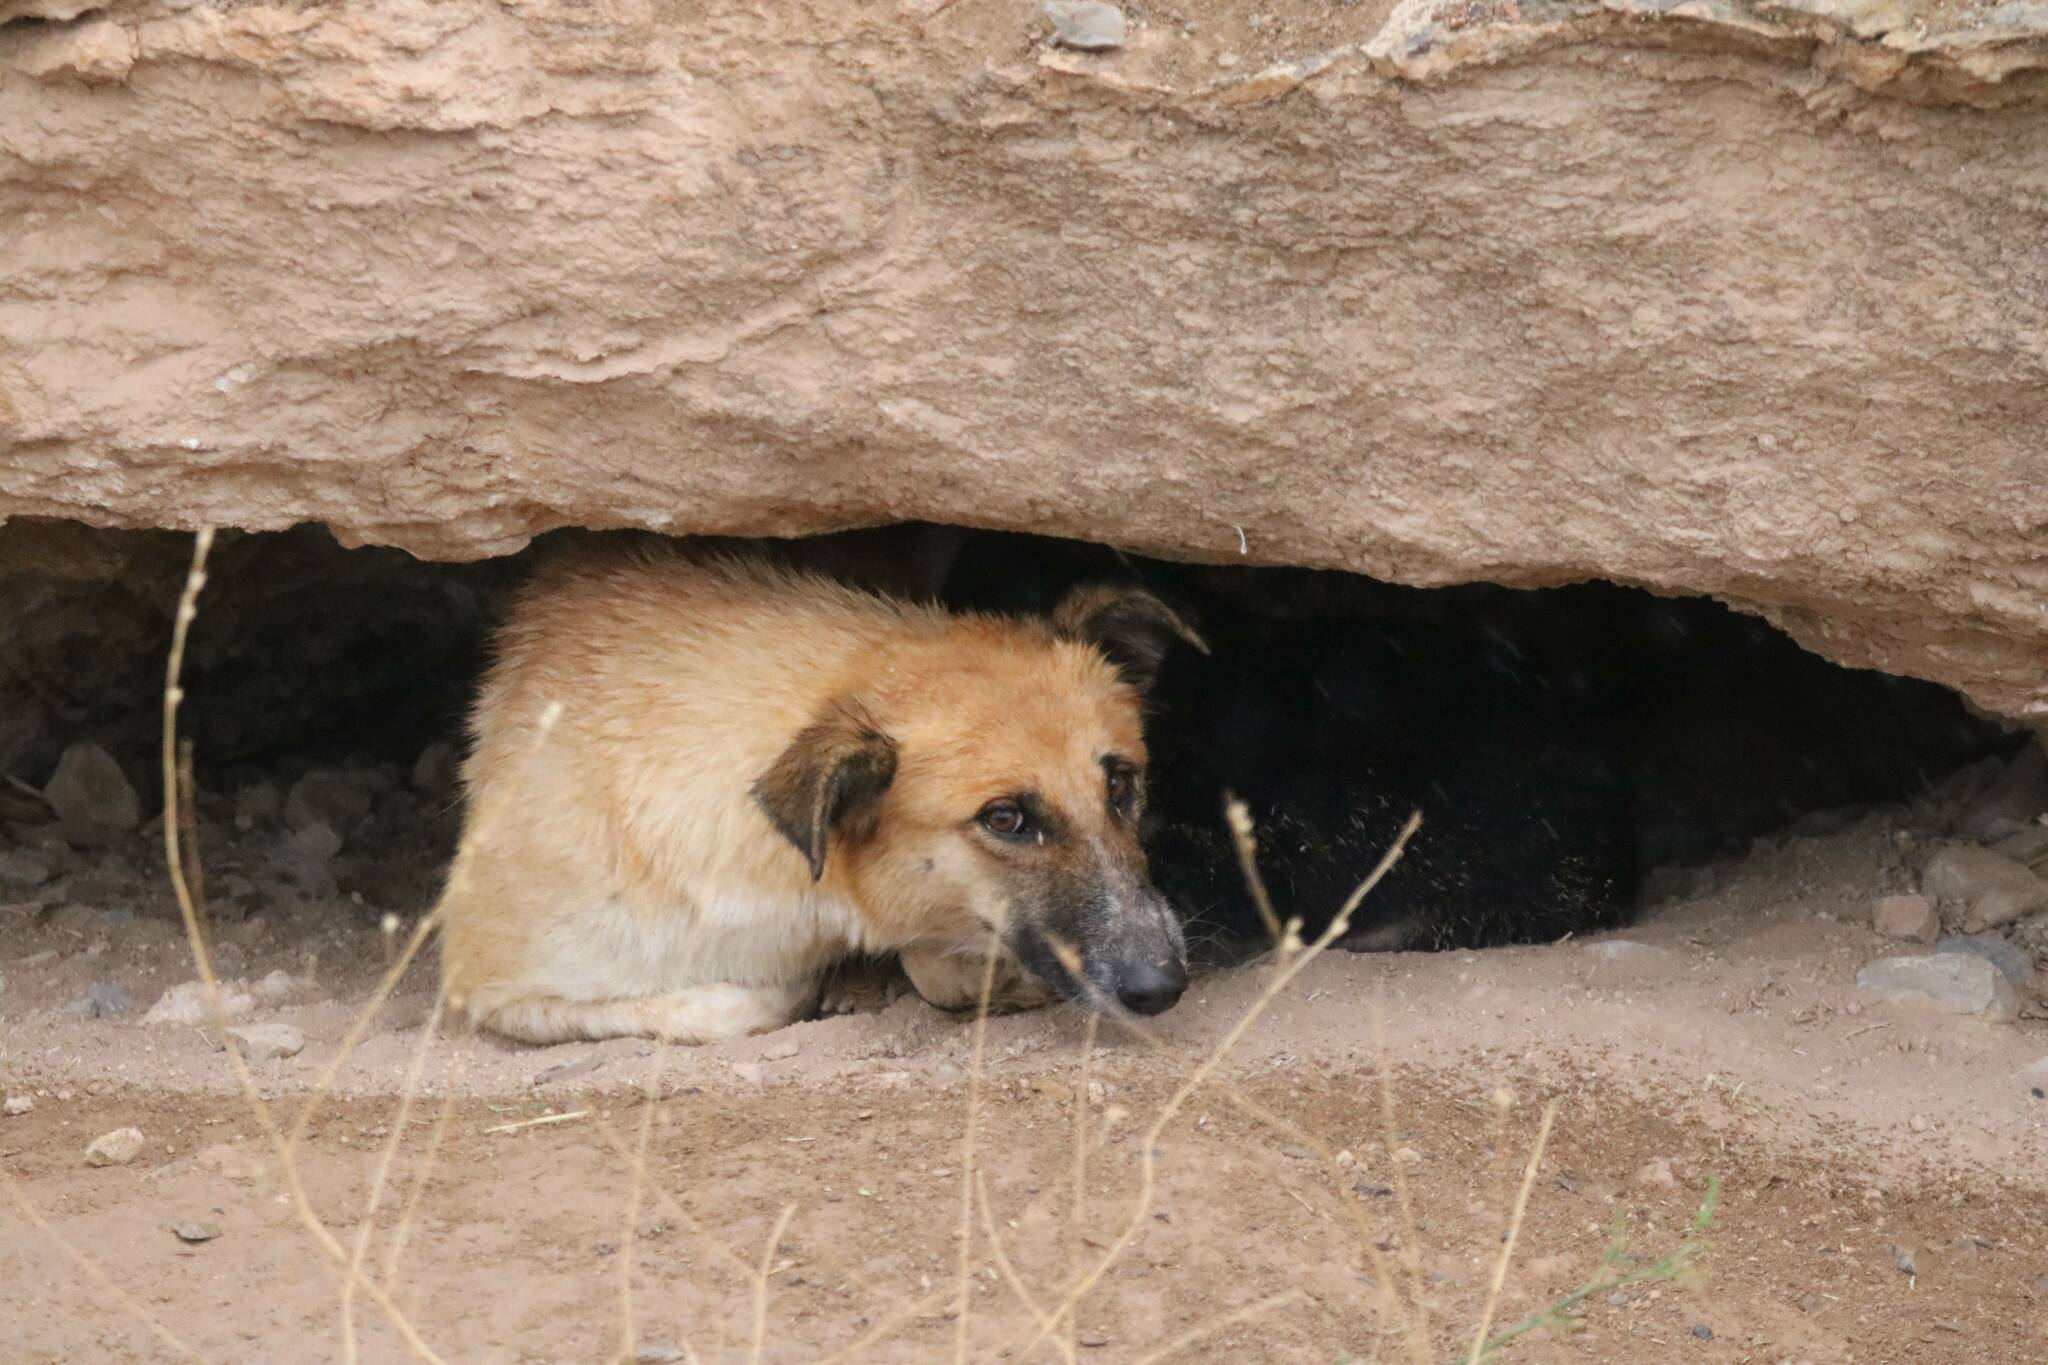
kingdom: Animalia
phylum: Chordata
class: Mammalia
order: Carnivora
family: Canidae
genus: Canis
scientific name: Canis lupus
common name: Gray wolf
